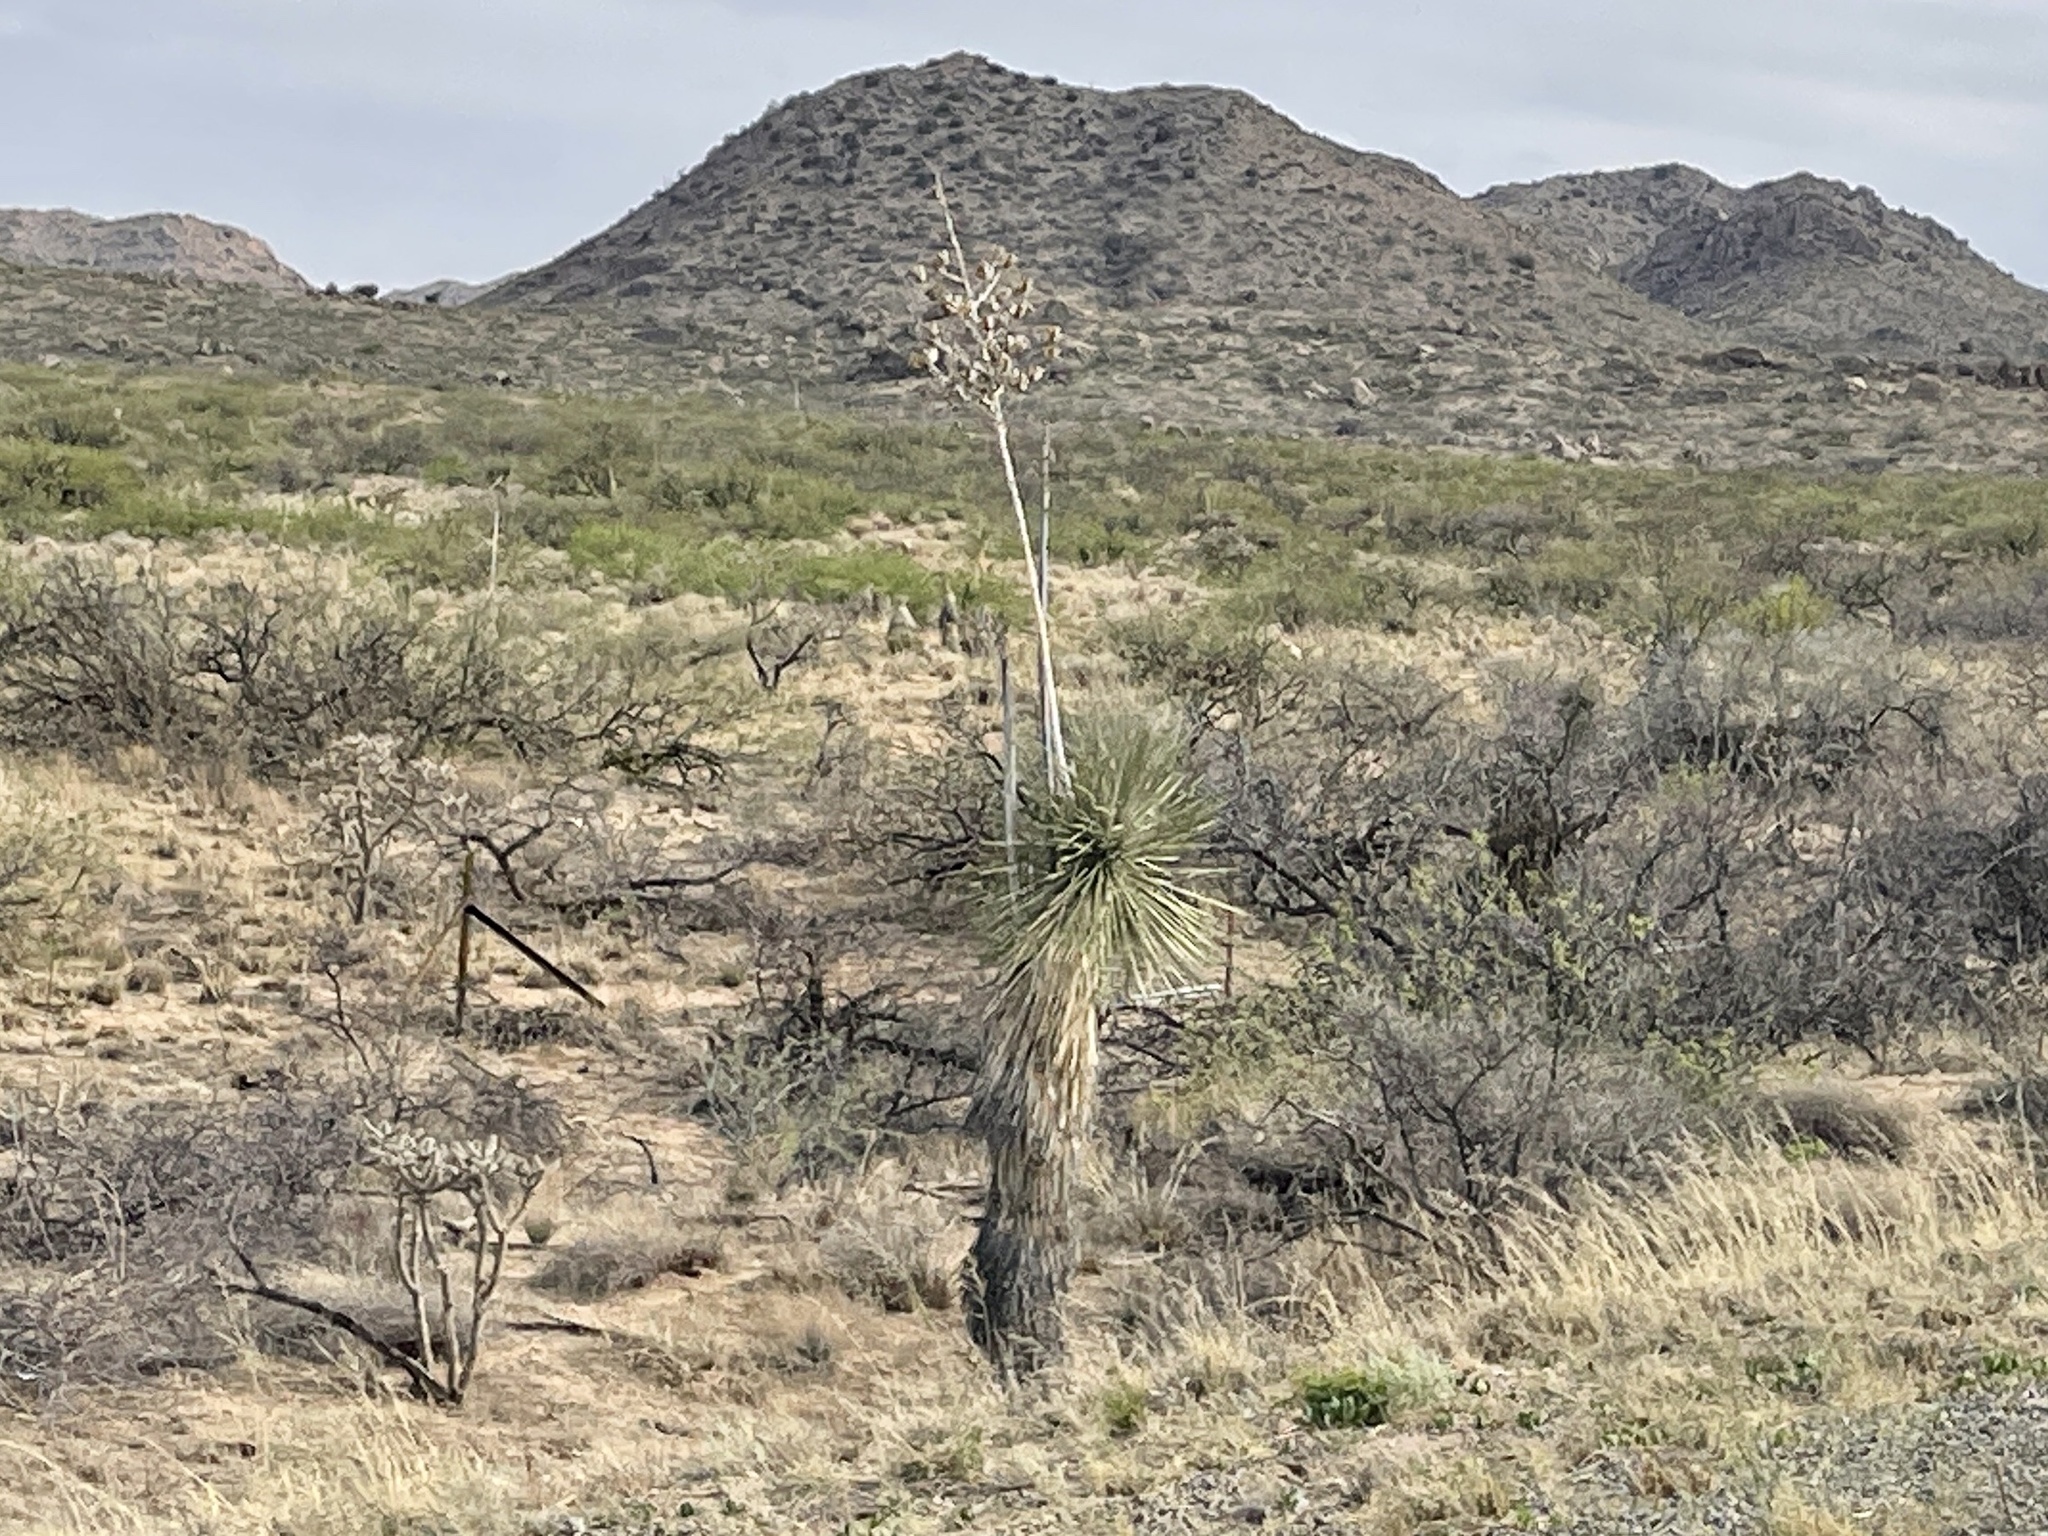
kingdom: Plantae
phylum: Tracheophyta
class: Liliopsida
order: Asparagales
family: Asparagaceae
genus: Yucca
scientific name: Yucca elata
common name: Palmella
